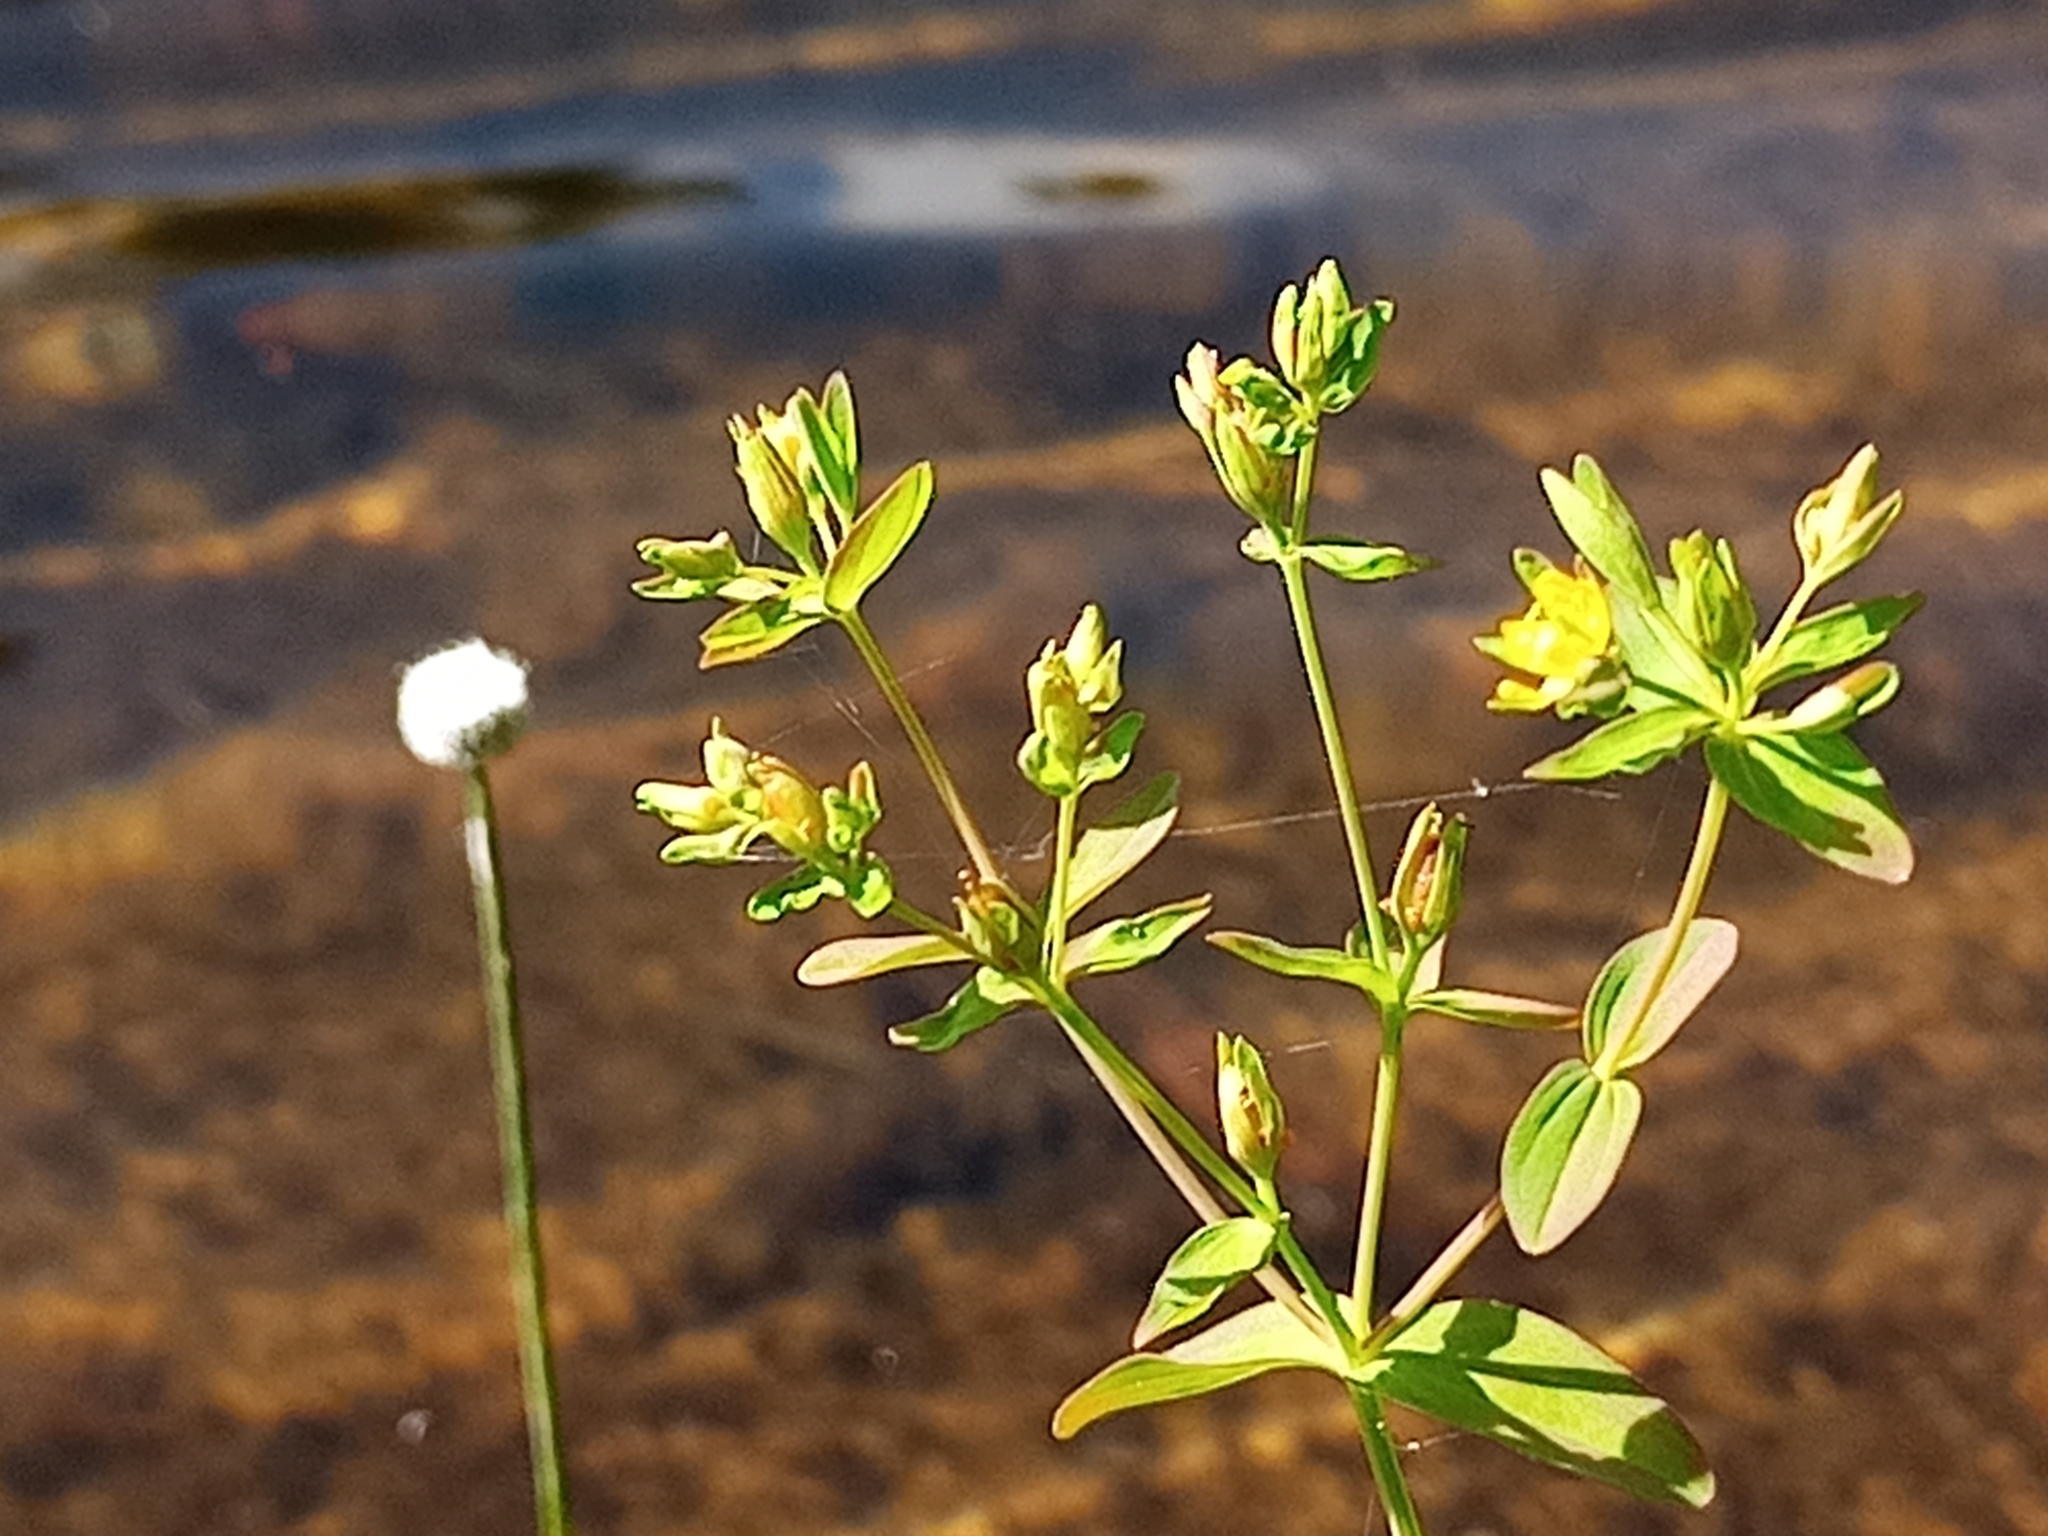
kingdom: Plantae
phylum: Tracheophyta
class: Magnoliopsida
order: Malpighiales
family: Hypericaceae
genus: Hypericum
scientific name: Hypericum boreale
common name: Northern bog st. john's-wort
